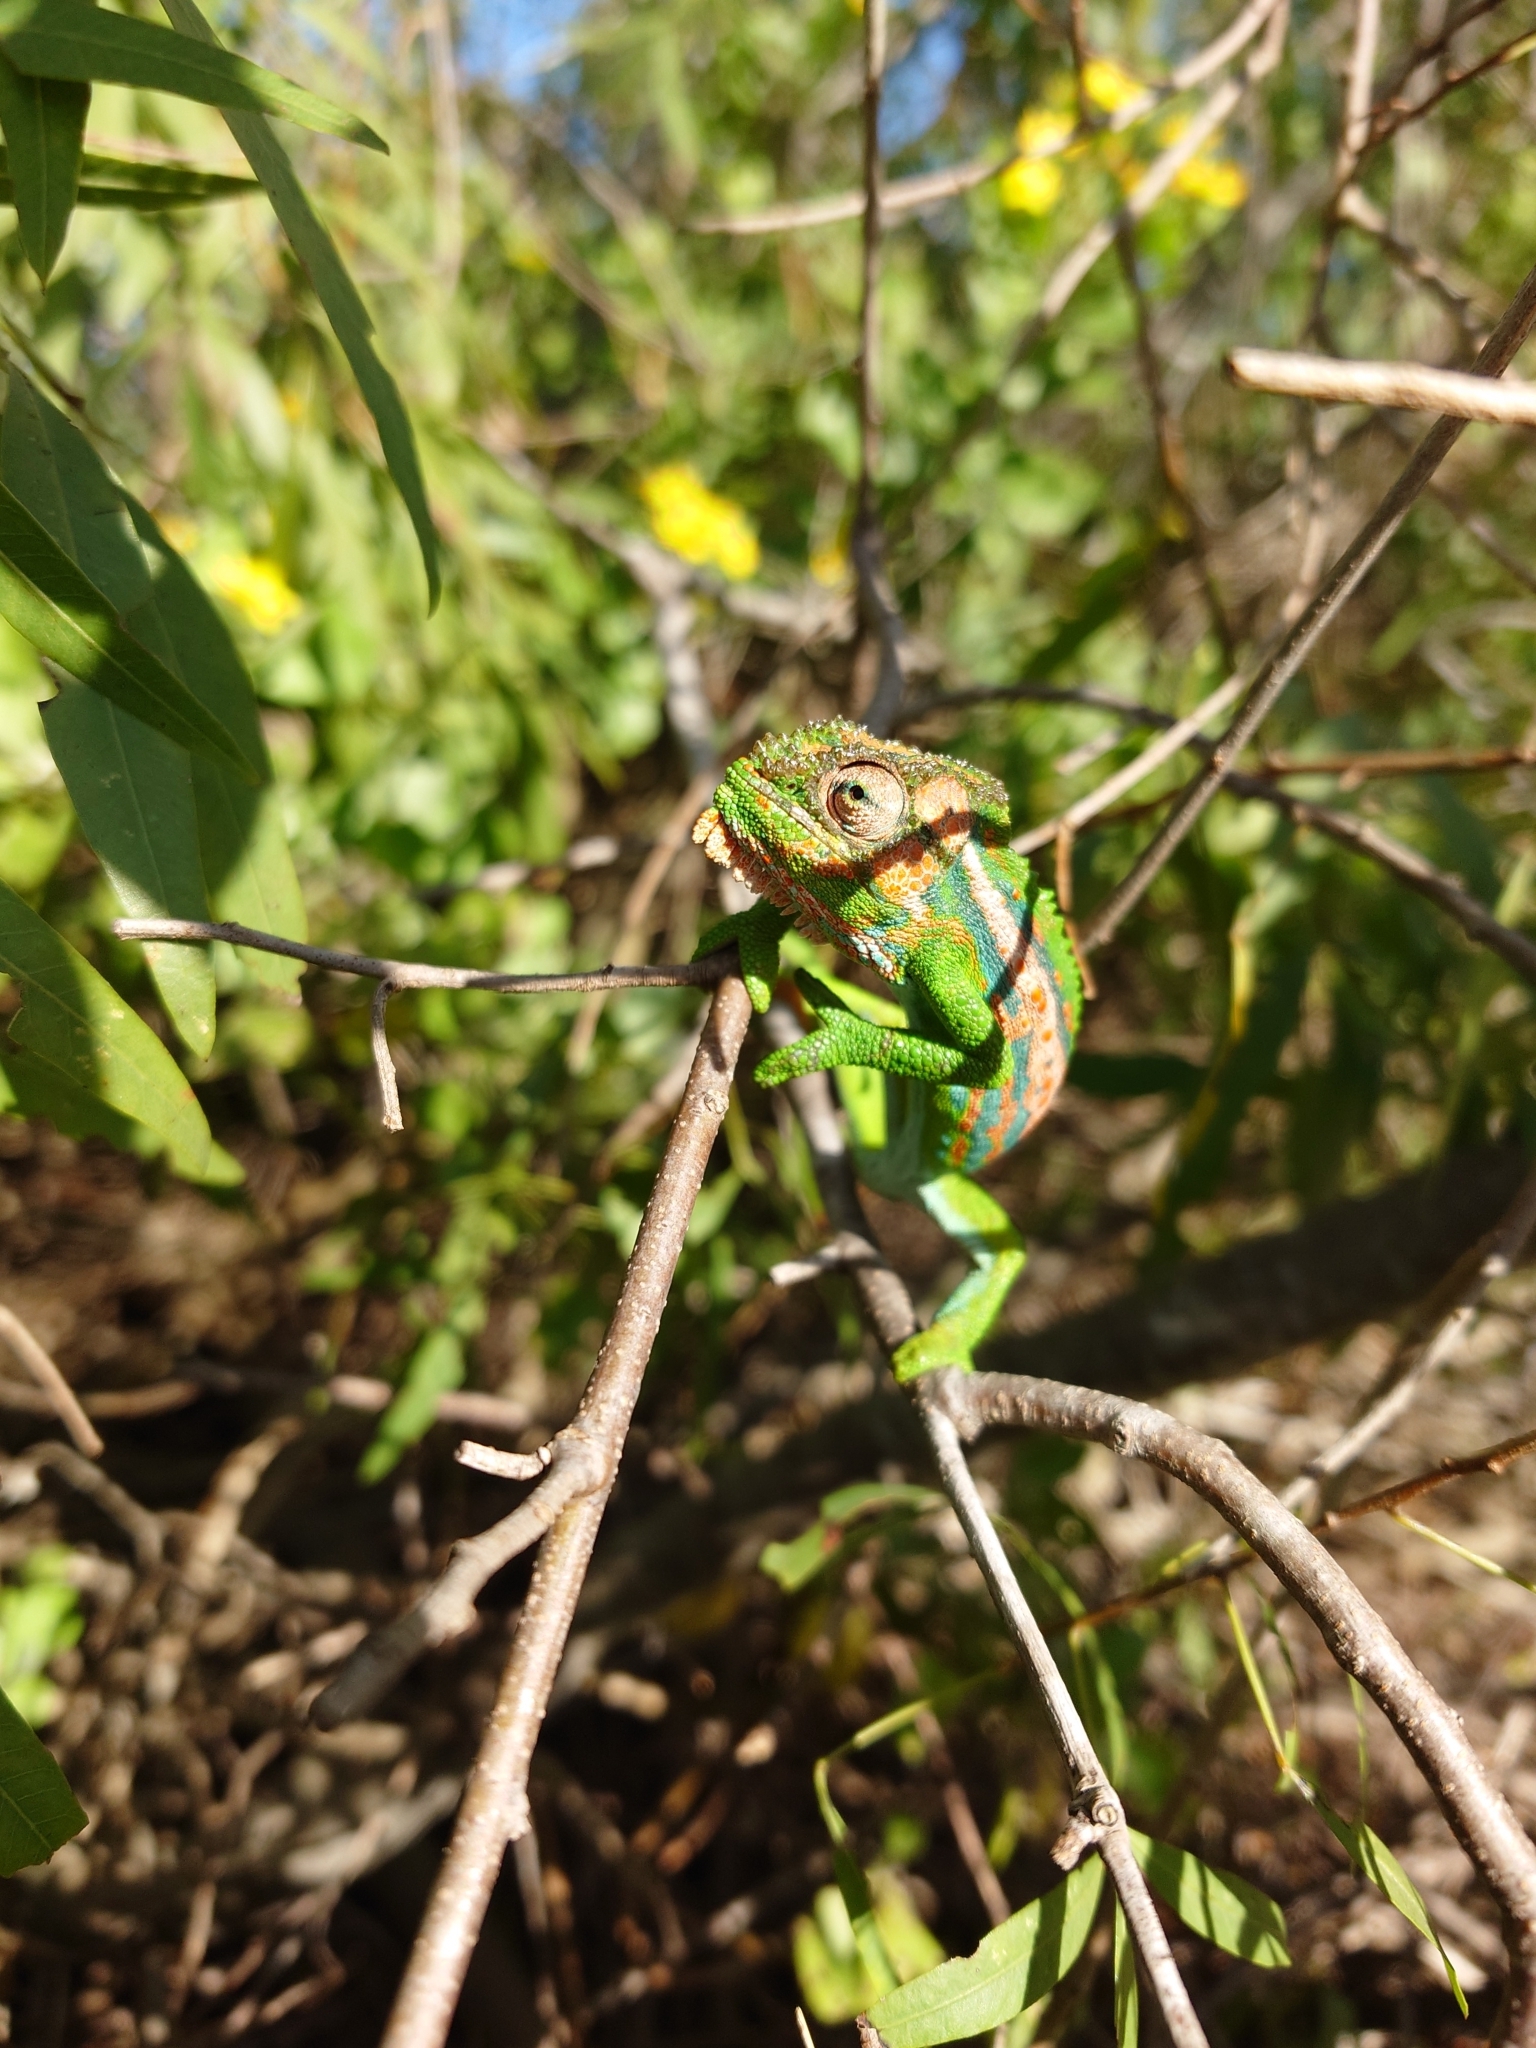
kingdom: Animalia
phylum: Chordata
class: Squamata
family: Chamaeleonidae
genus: Bradypodion
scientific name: Bradypodion pumilum
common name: Cape dwarf chameleon
